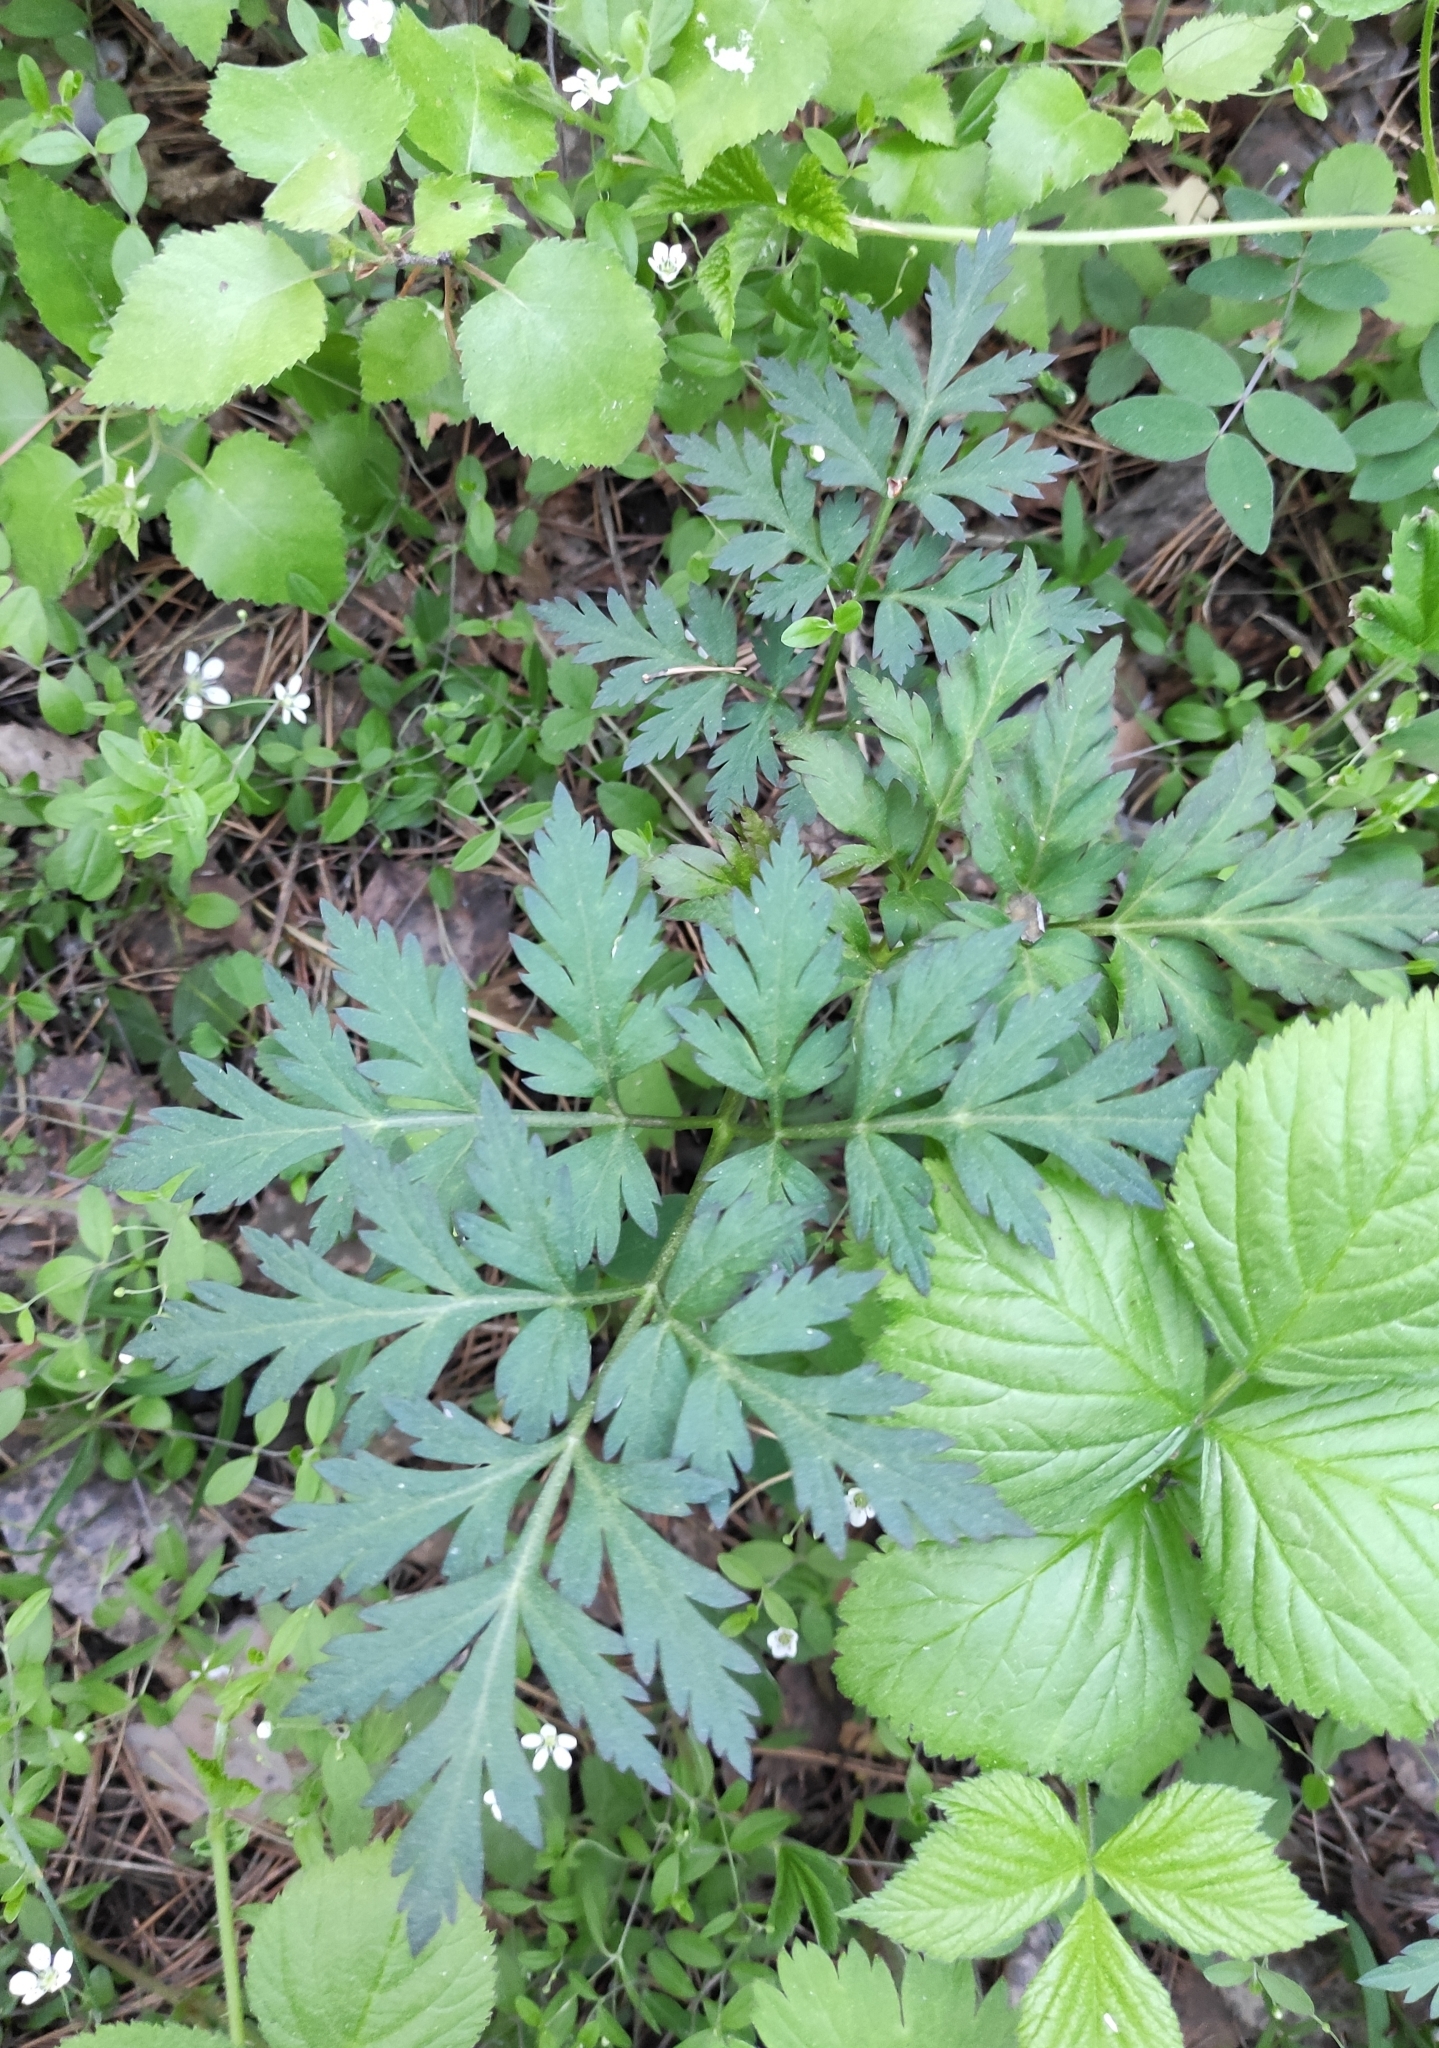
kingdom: Plantae
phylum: Tracheophyta
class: Magnoliopsida
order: Apiales
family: Apiaceae
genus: Pleurospermum
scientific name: Pleurospermum uralense
